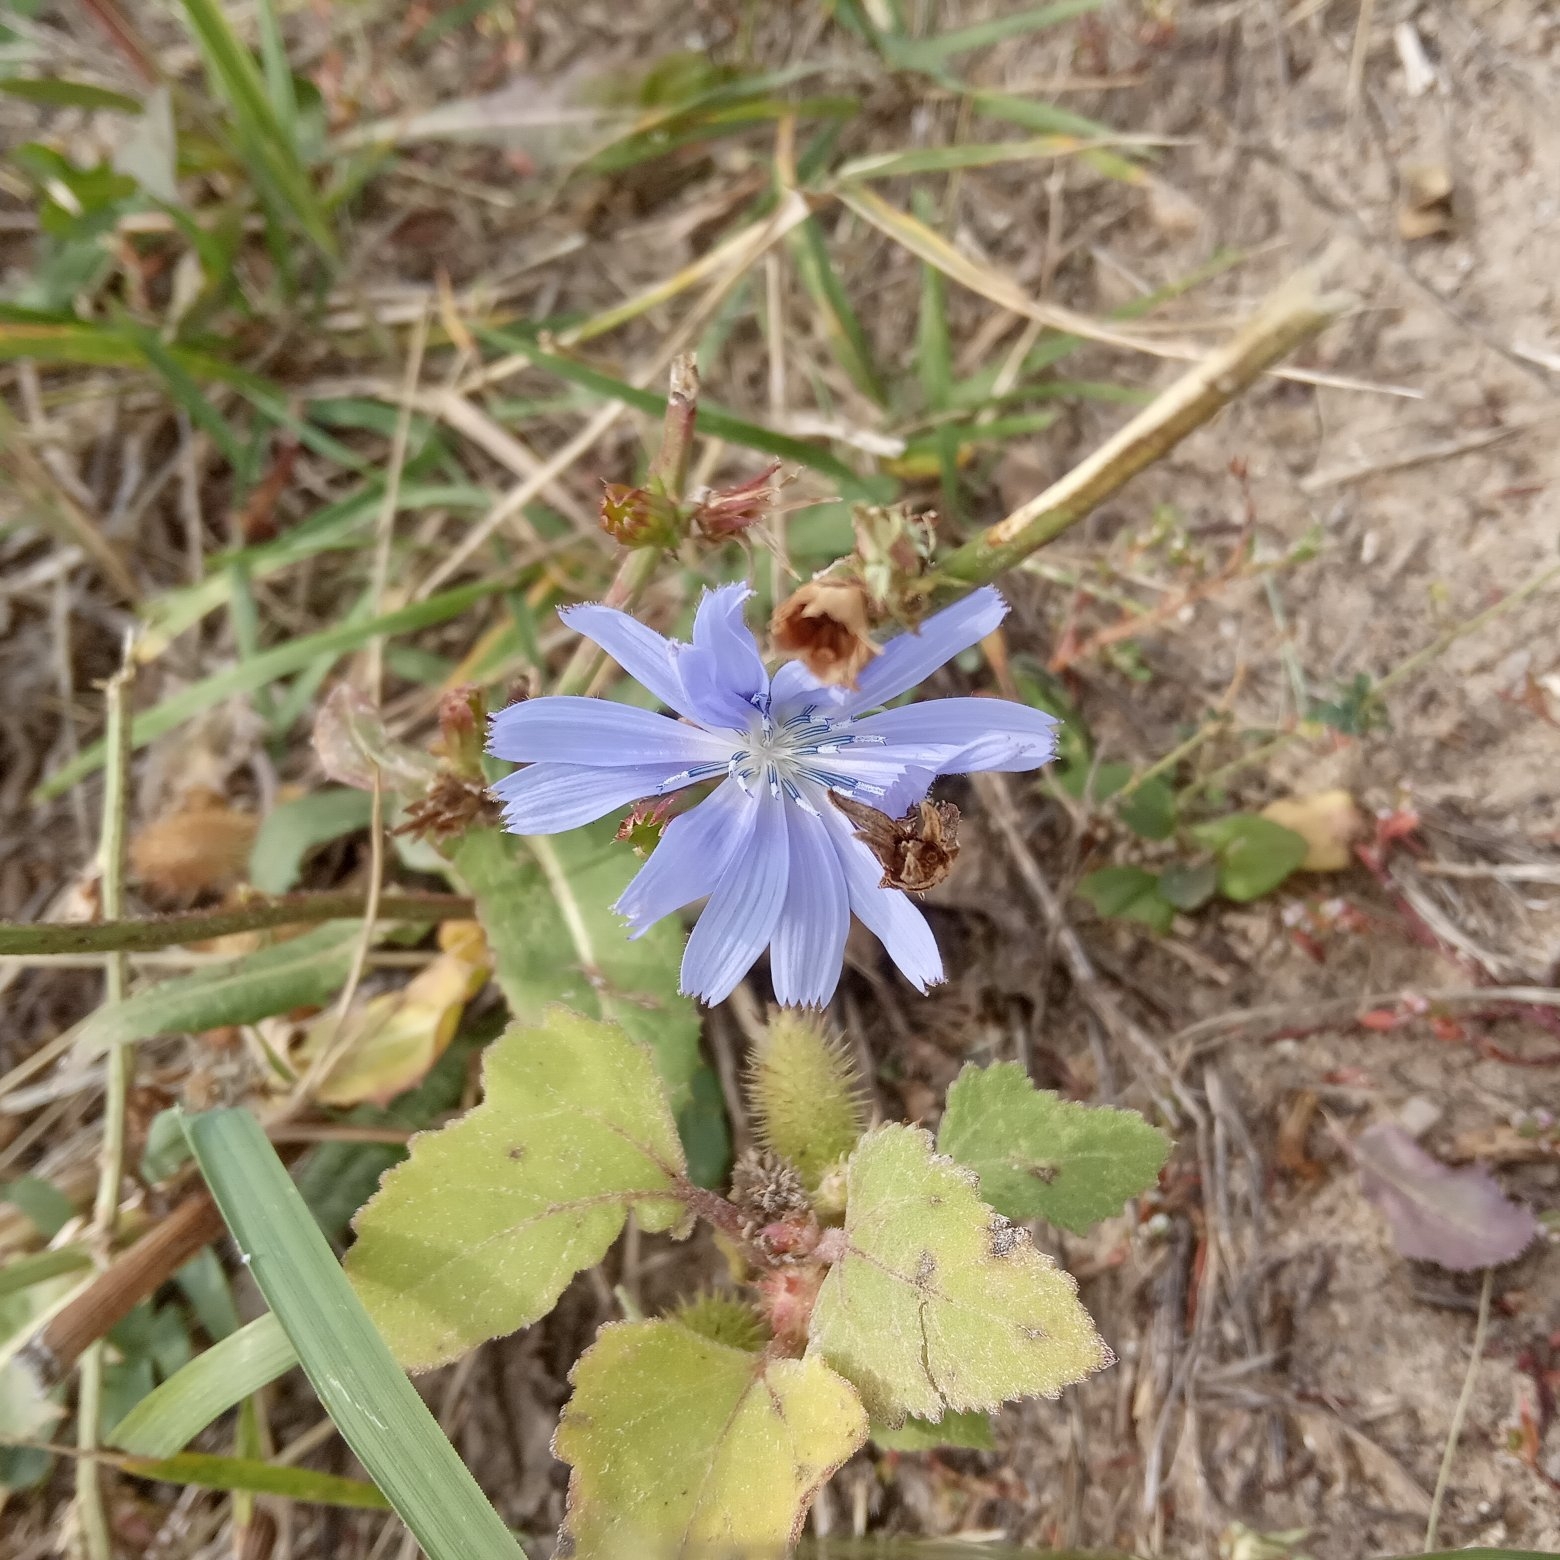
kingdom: Plantae
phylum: Tracheophyta
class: Magnoliopsida
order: Asterales
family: Asteraceae
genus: Cichorium
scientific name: Cichorium intybus
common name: Chicory
